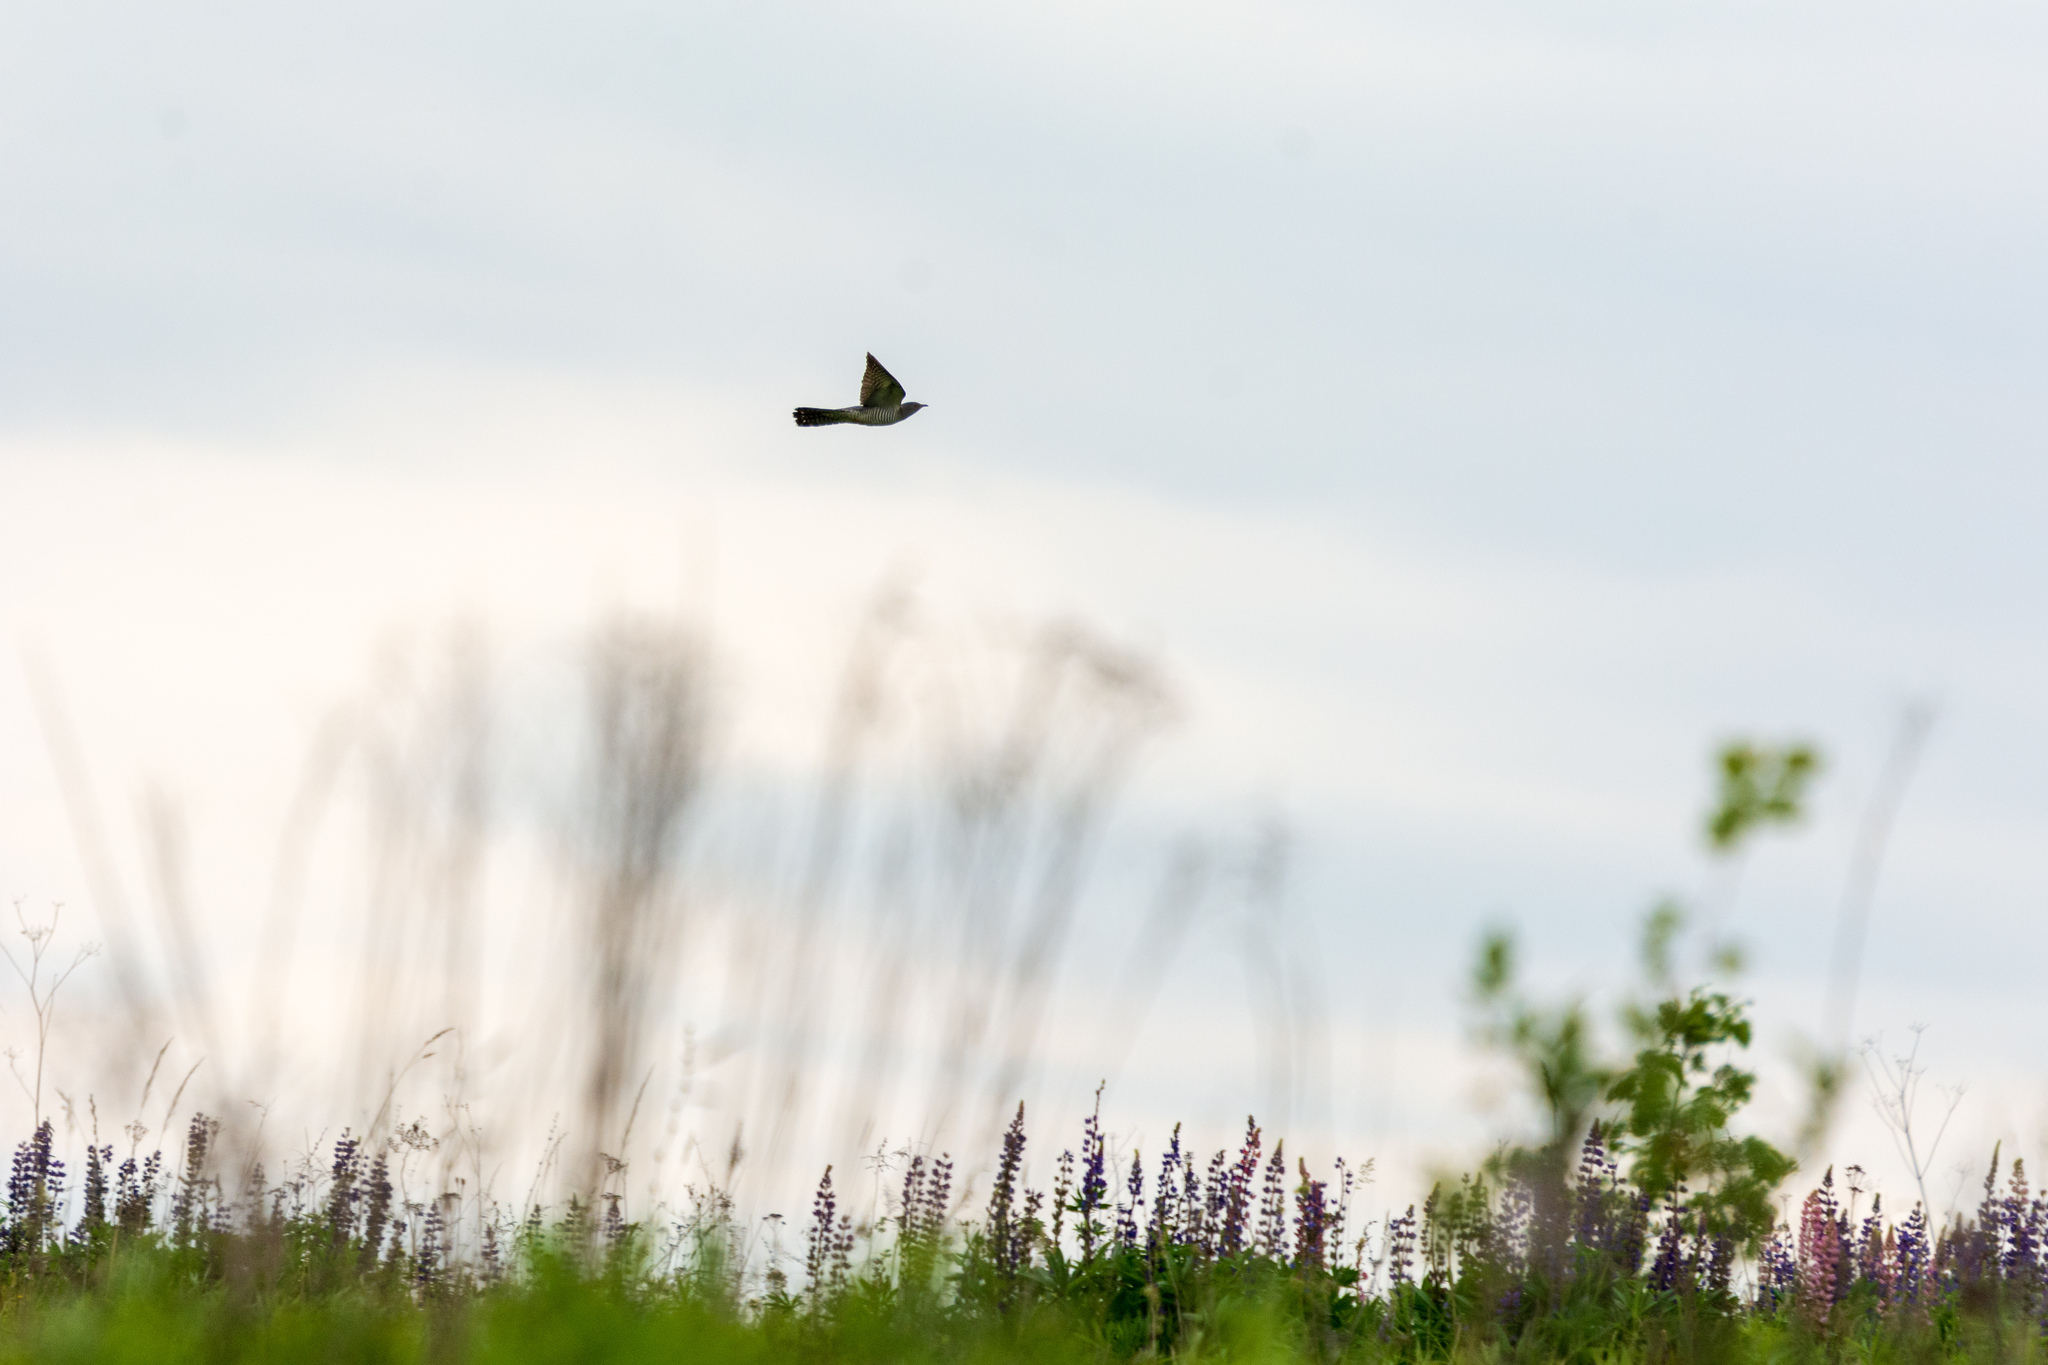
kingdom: Animalia
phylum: Chordata
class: Aves
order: Cuculiformes
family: Cuculidae
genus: Cuculus
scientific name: Cuculus canorus
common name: Common cuckoo
